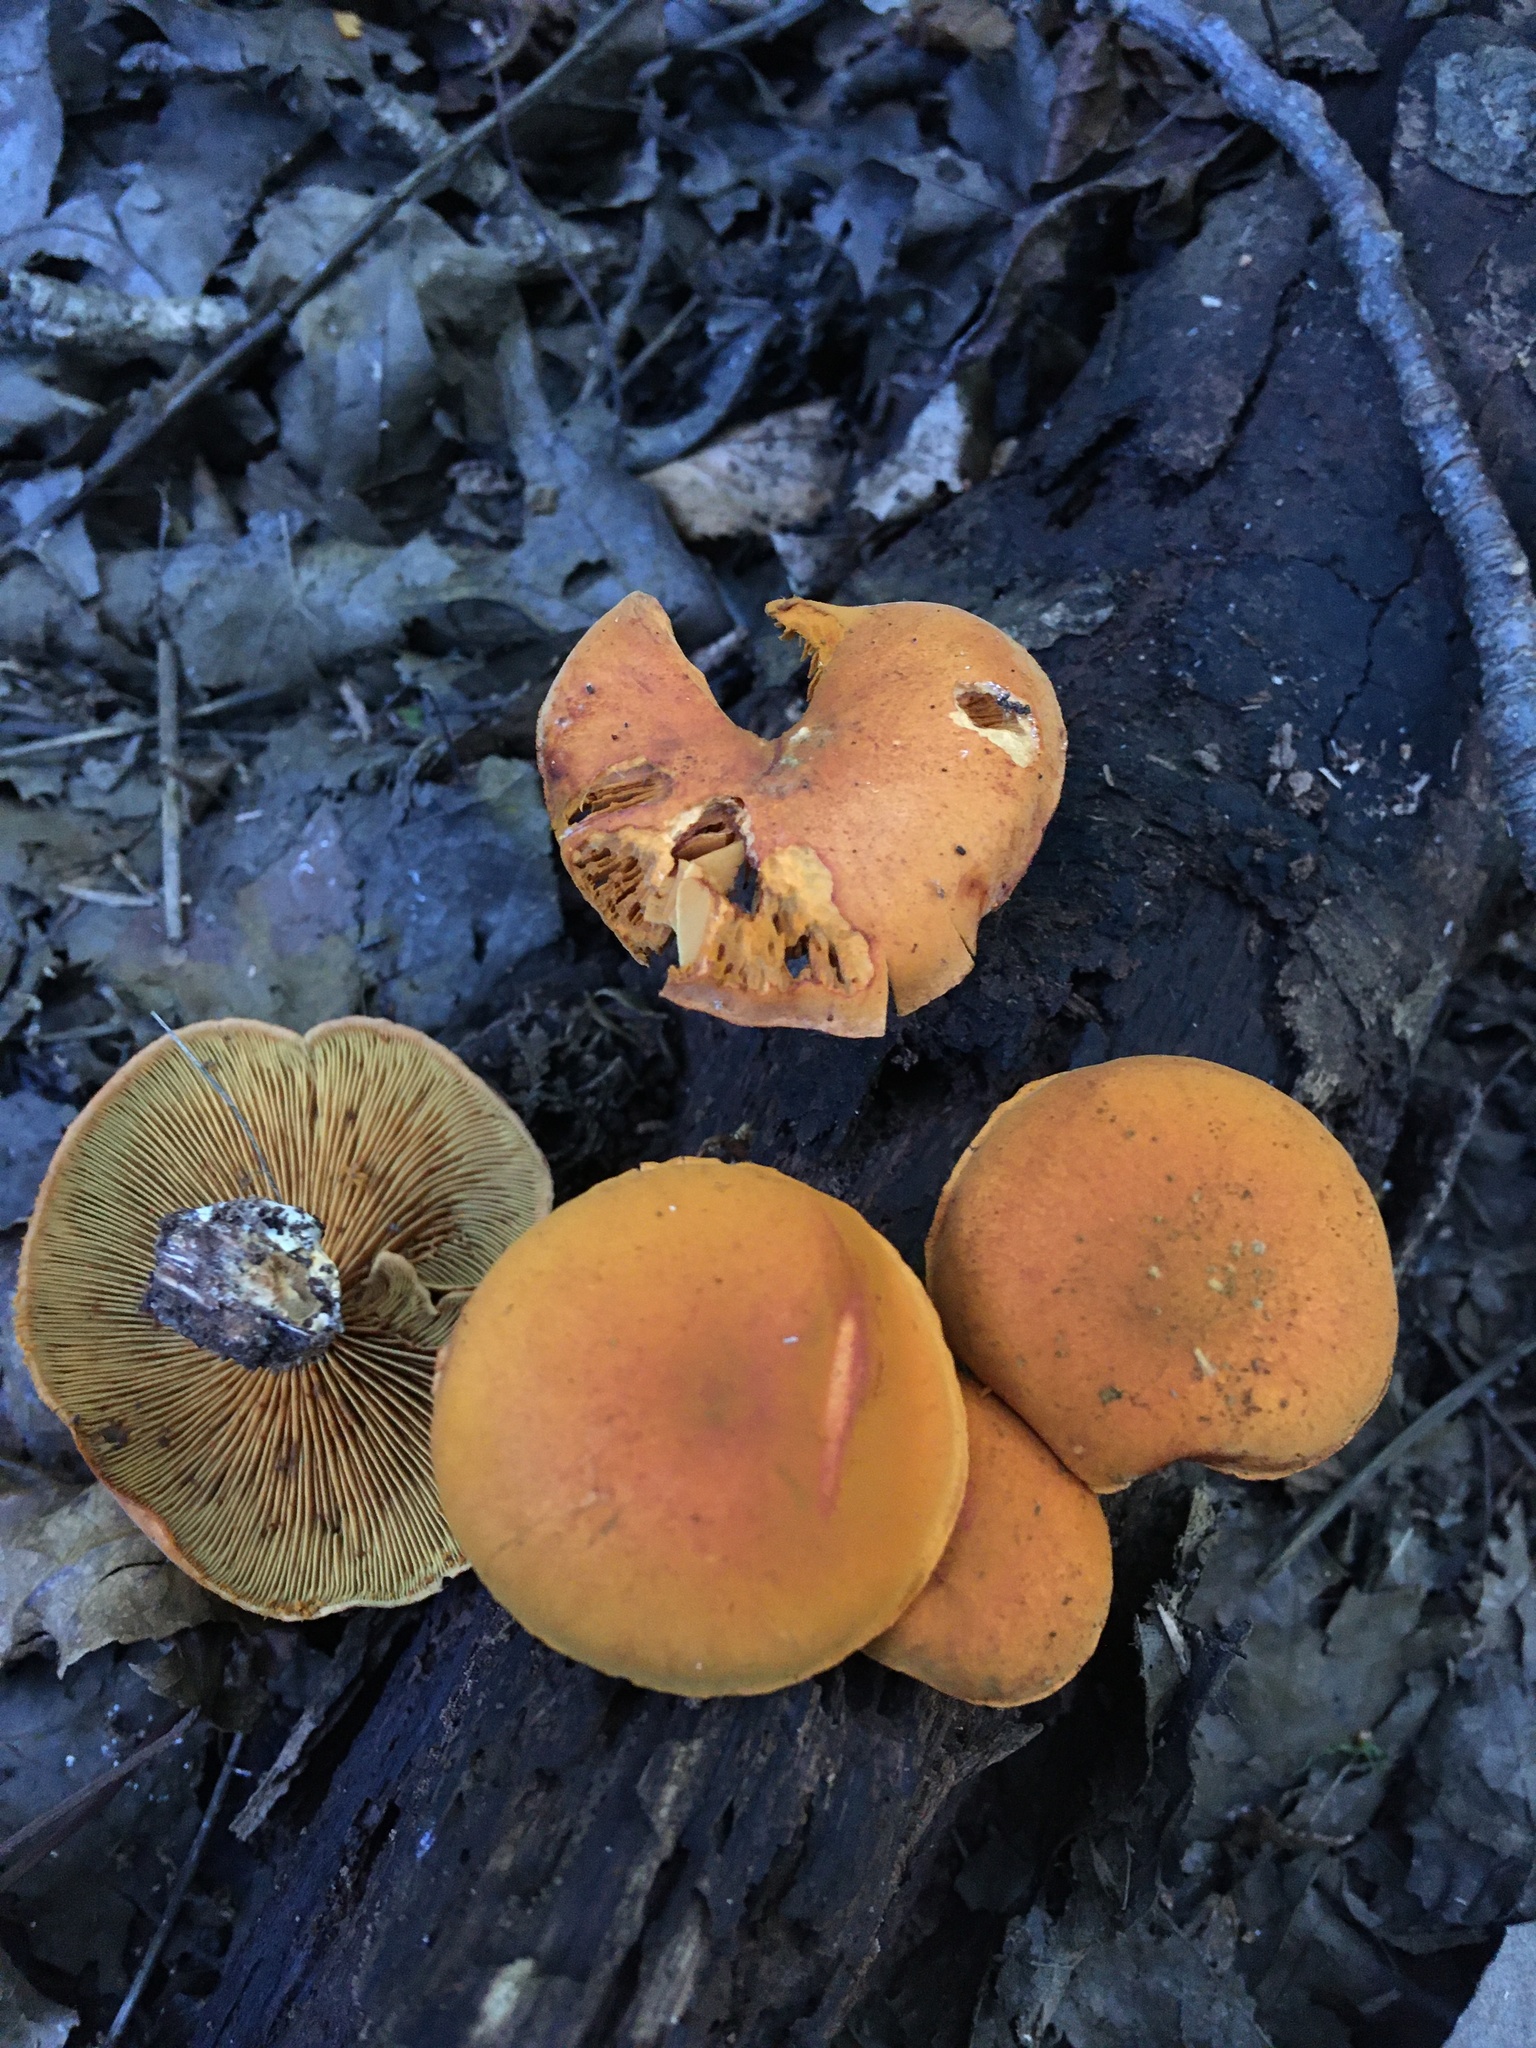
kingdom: Fungi
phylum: Basidiomycota
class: Agaricomycetes
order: Agaricales
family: Hymenogastraceae
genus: Gymnopilus
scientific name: Gymnopilus liquiritiae
